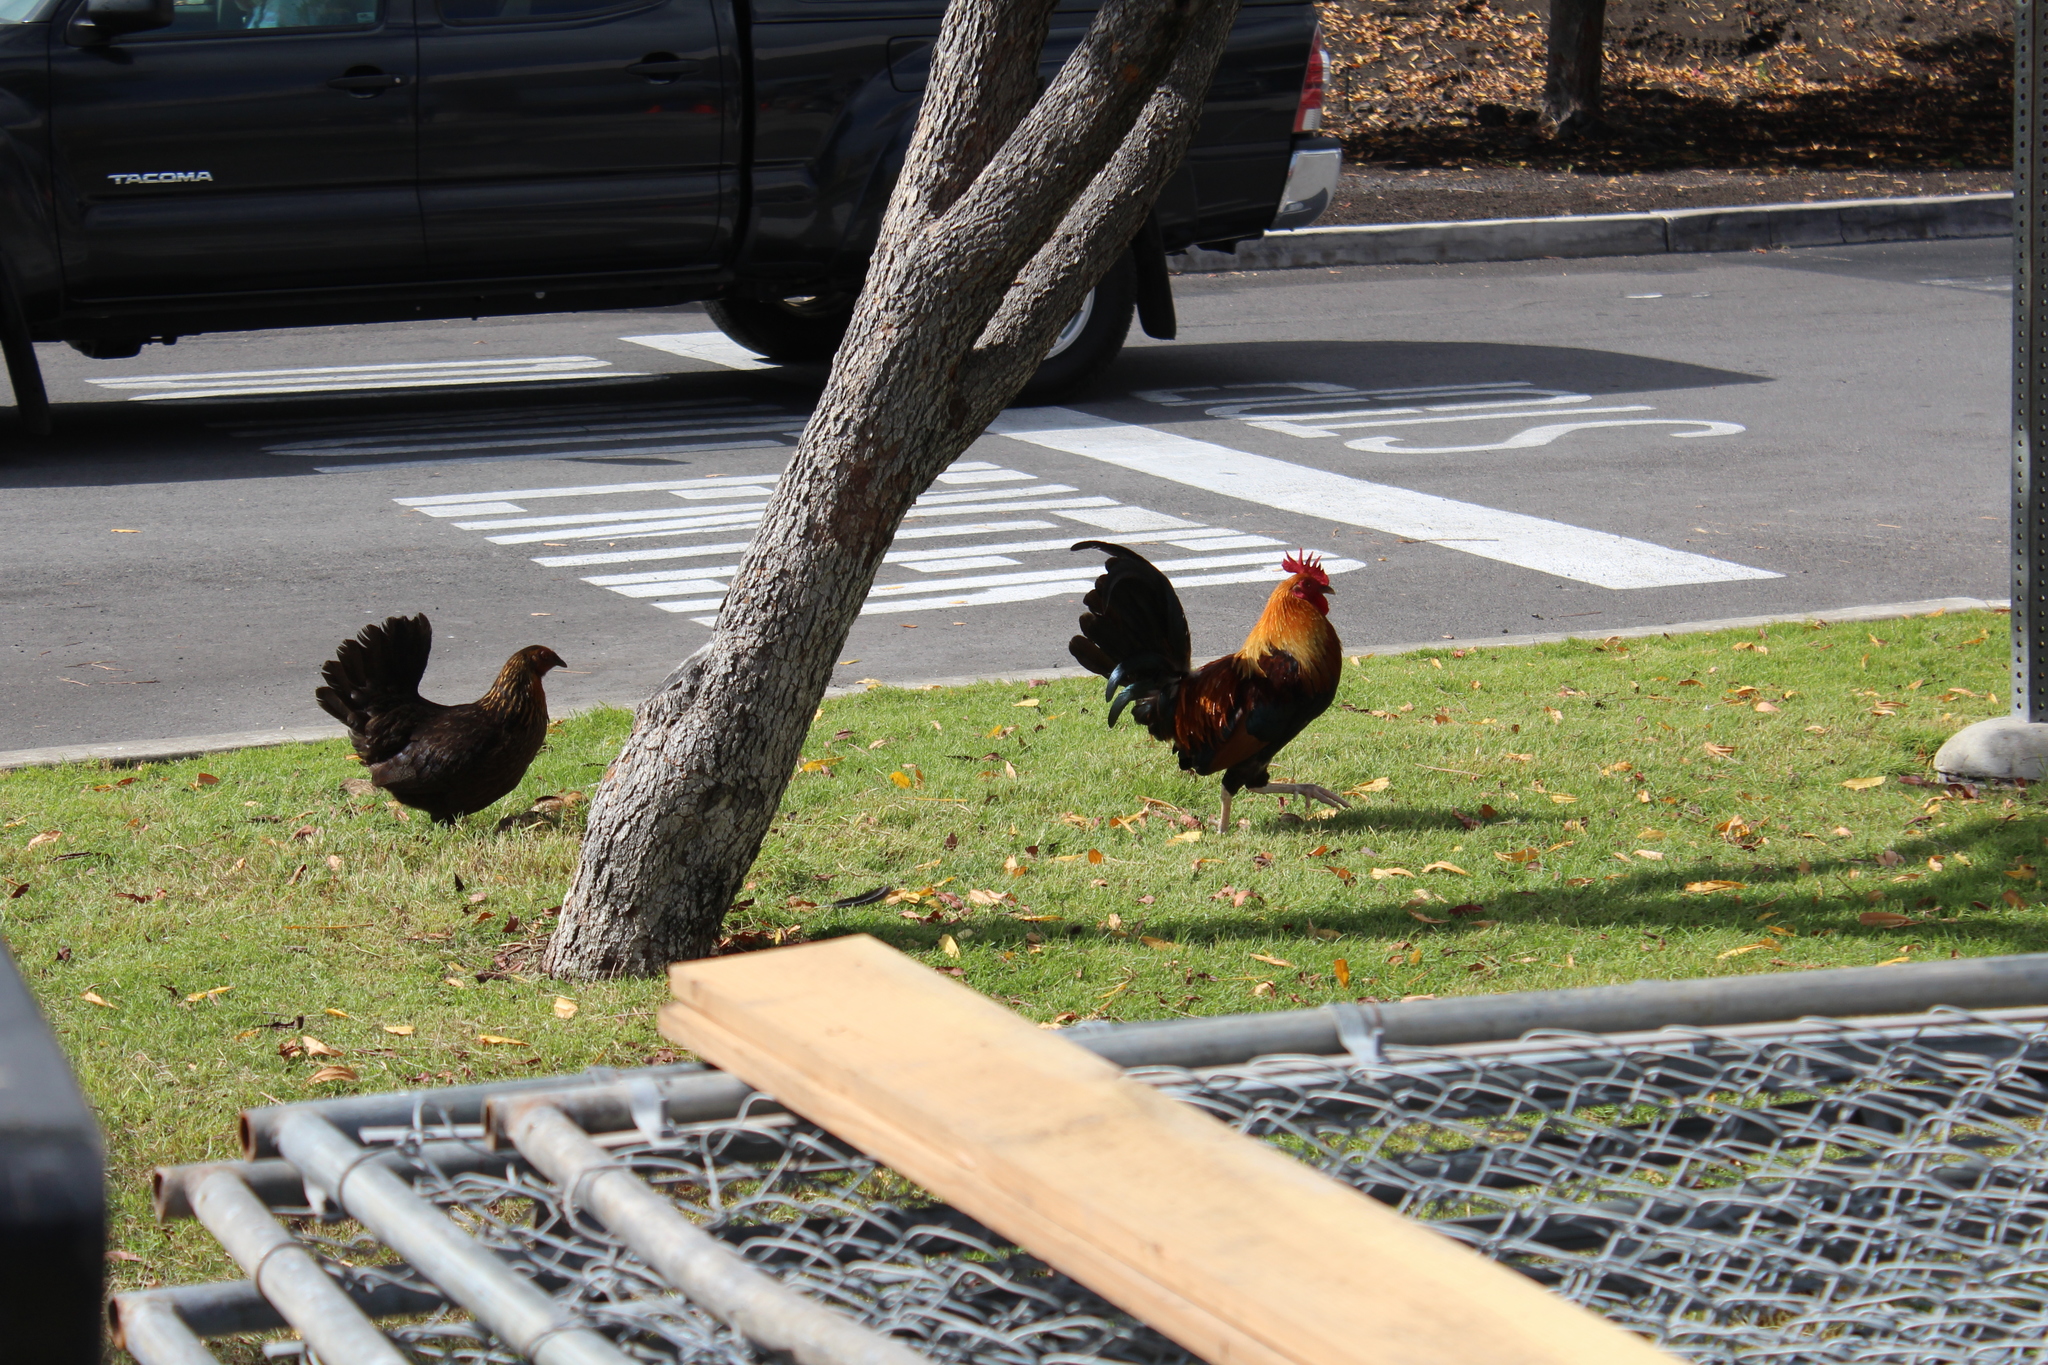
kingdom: Animalia
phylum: Chordata
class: Aves
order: Galliformes
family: Phasianidae
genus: Gallus
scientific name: Gallus gallus
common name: Red junglefowl
